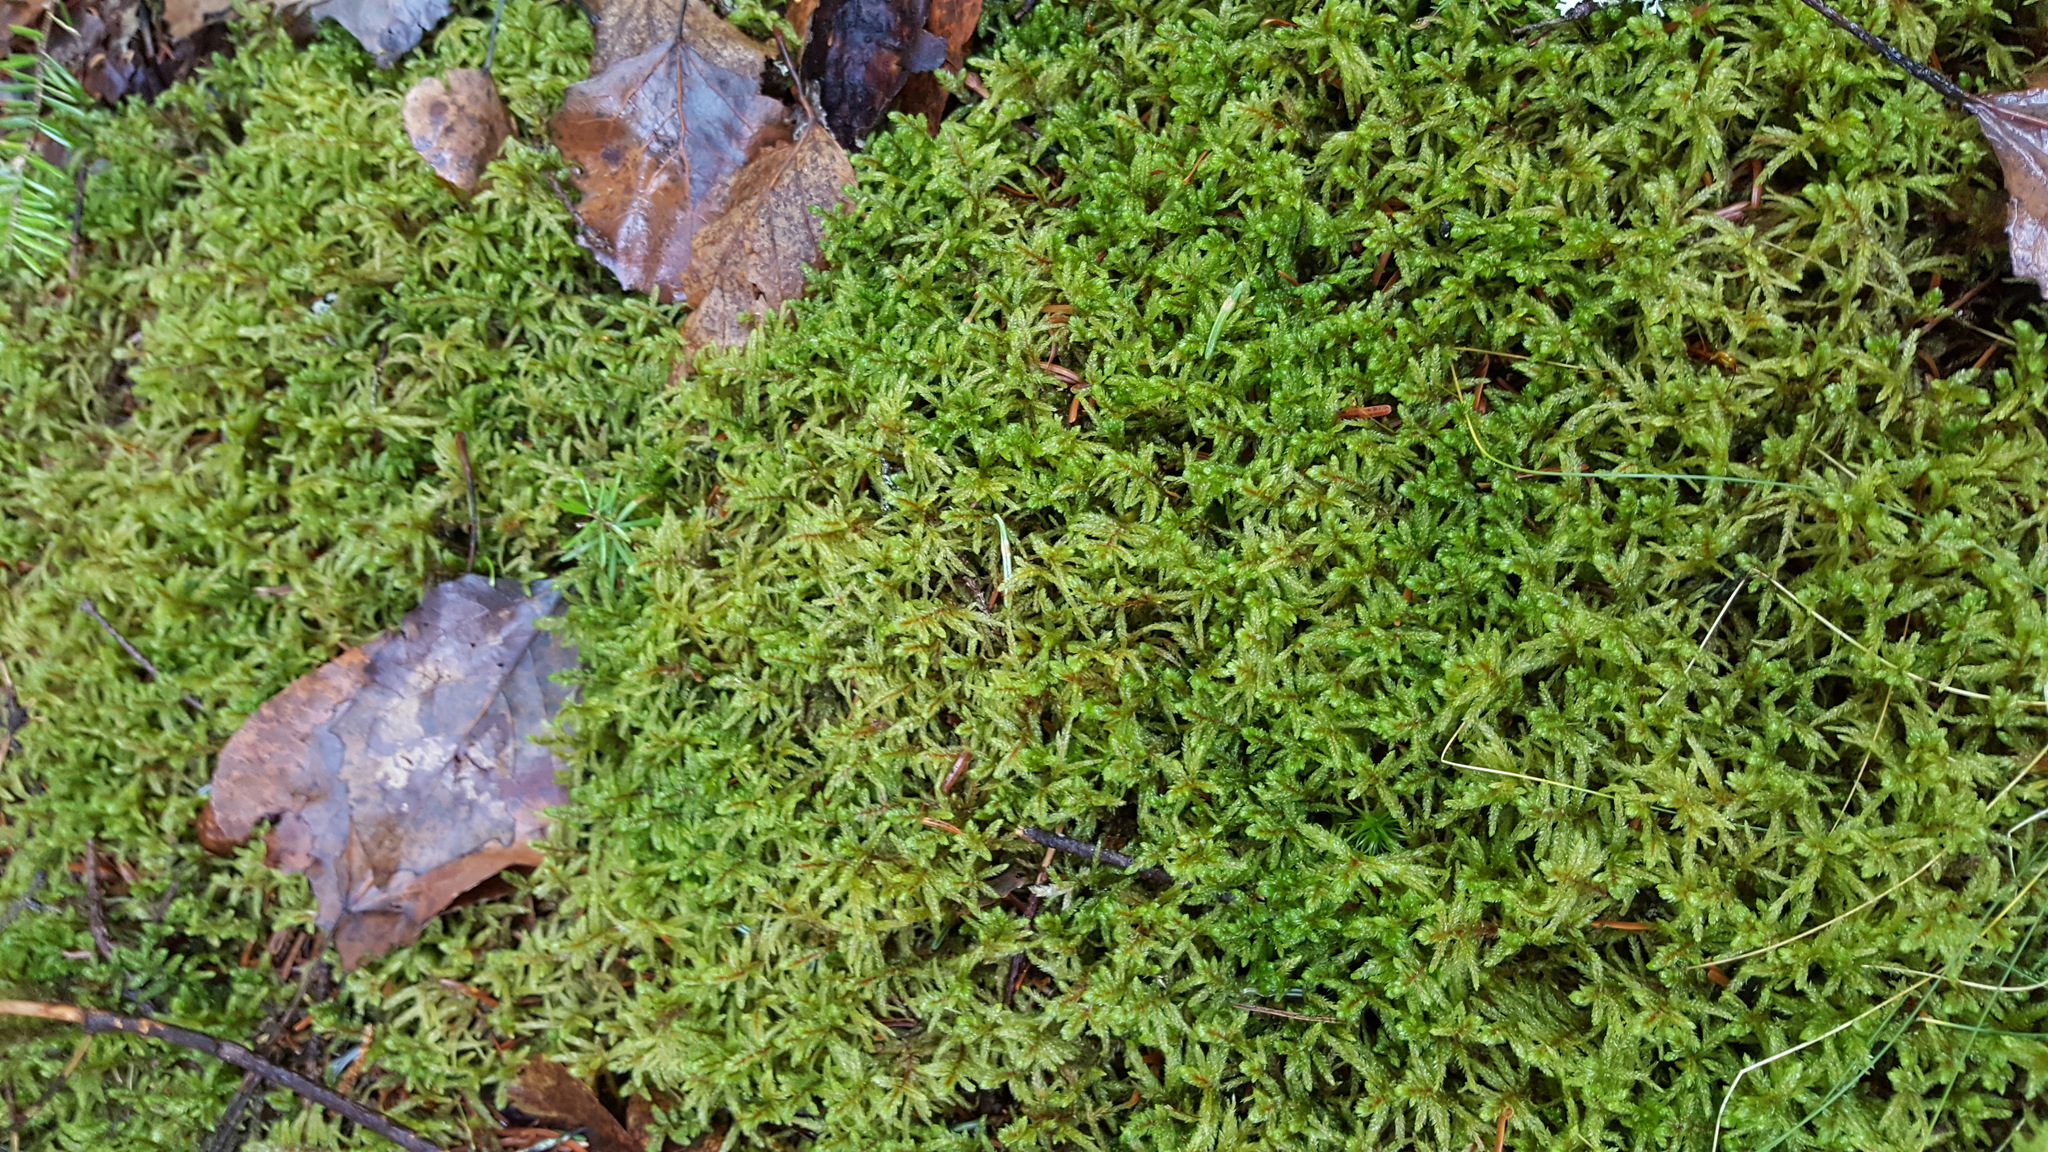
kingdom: Plantae
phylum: Bryophyta
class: Bryopsida
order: Hypnales
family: Hylocomiaceae
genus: Pleurozium
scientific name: Pleurozium schreberi
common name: Red-stemmed feather moss
